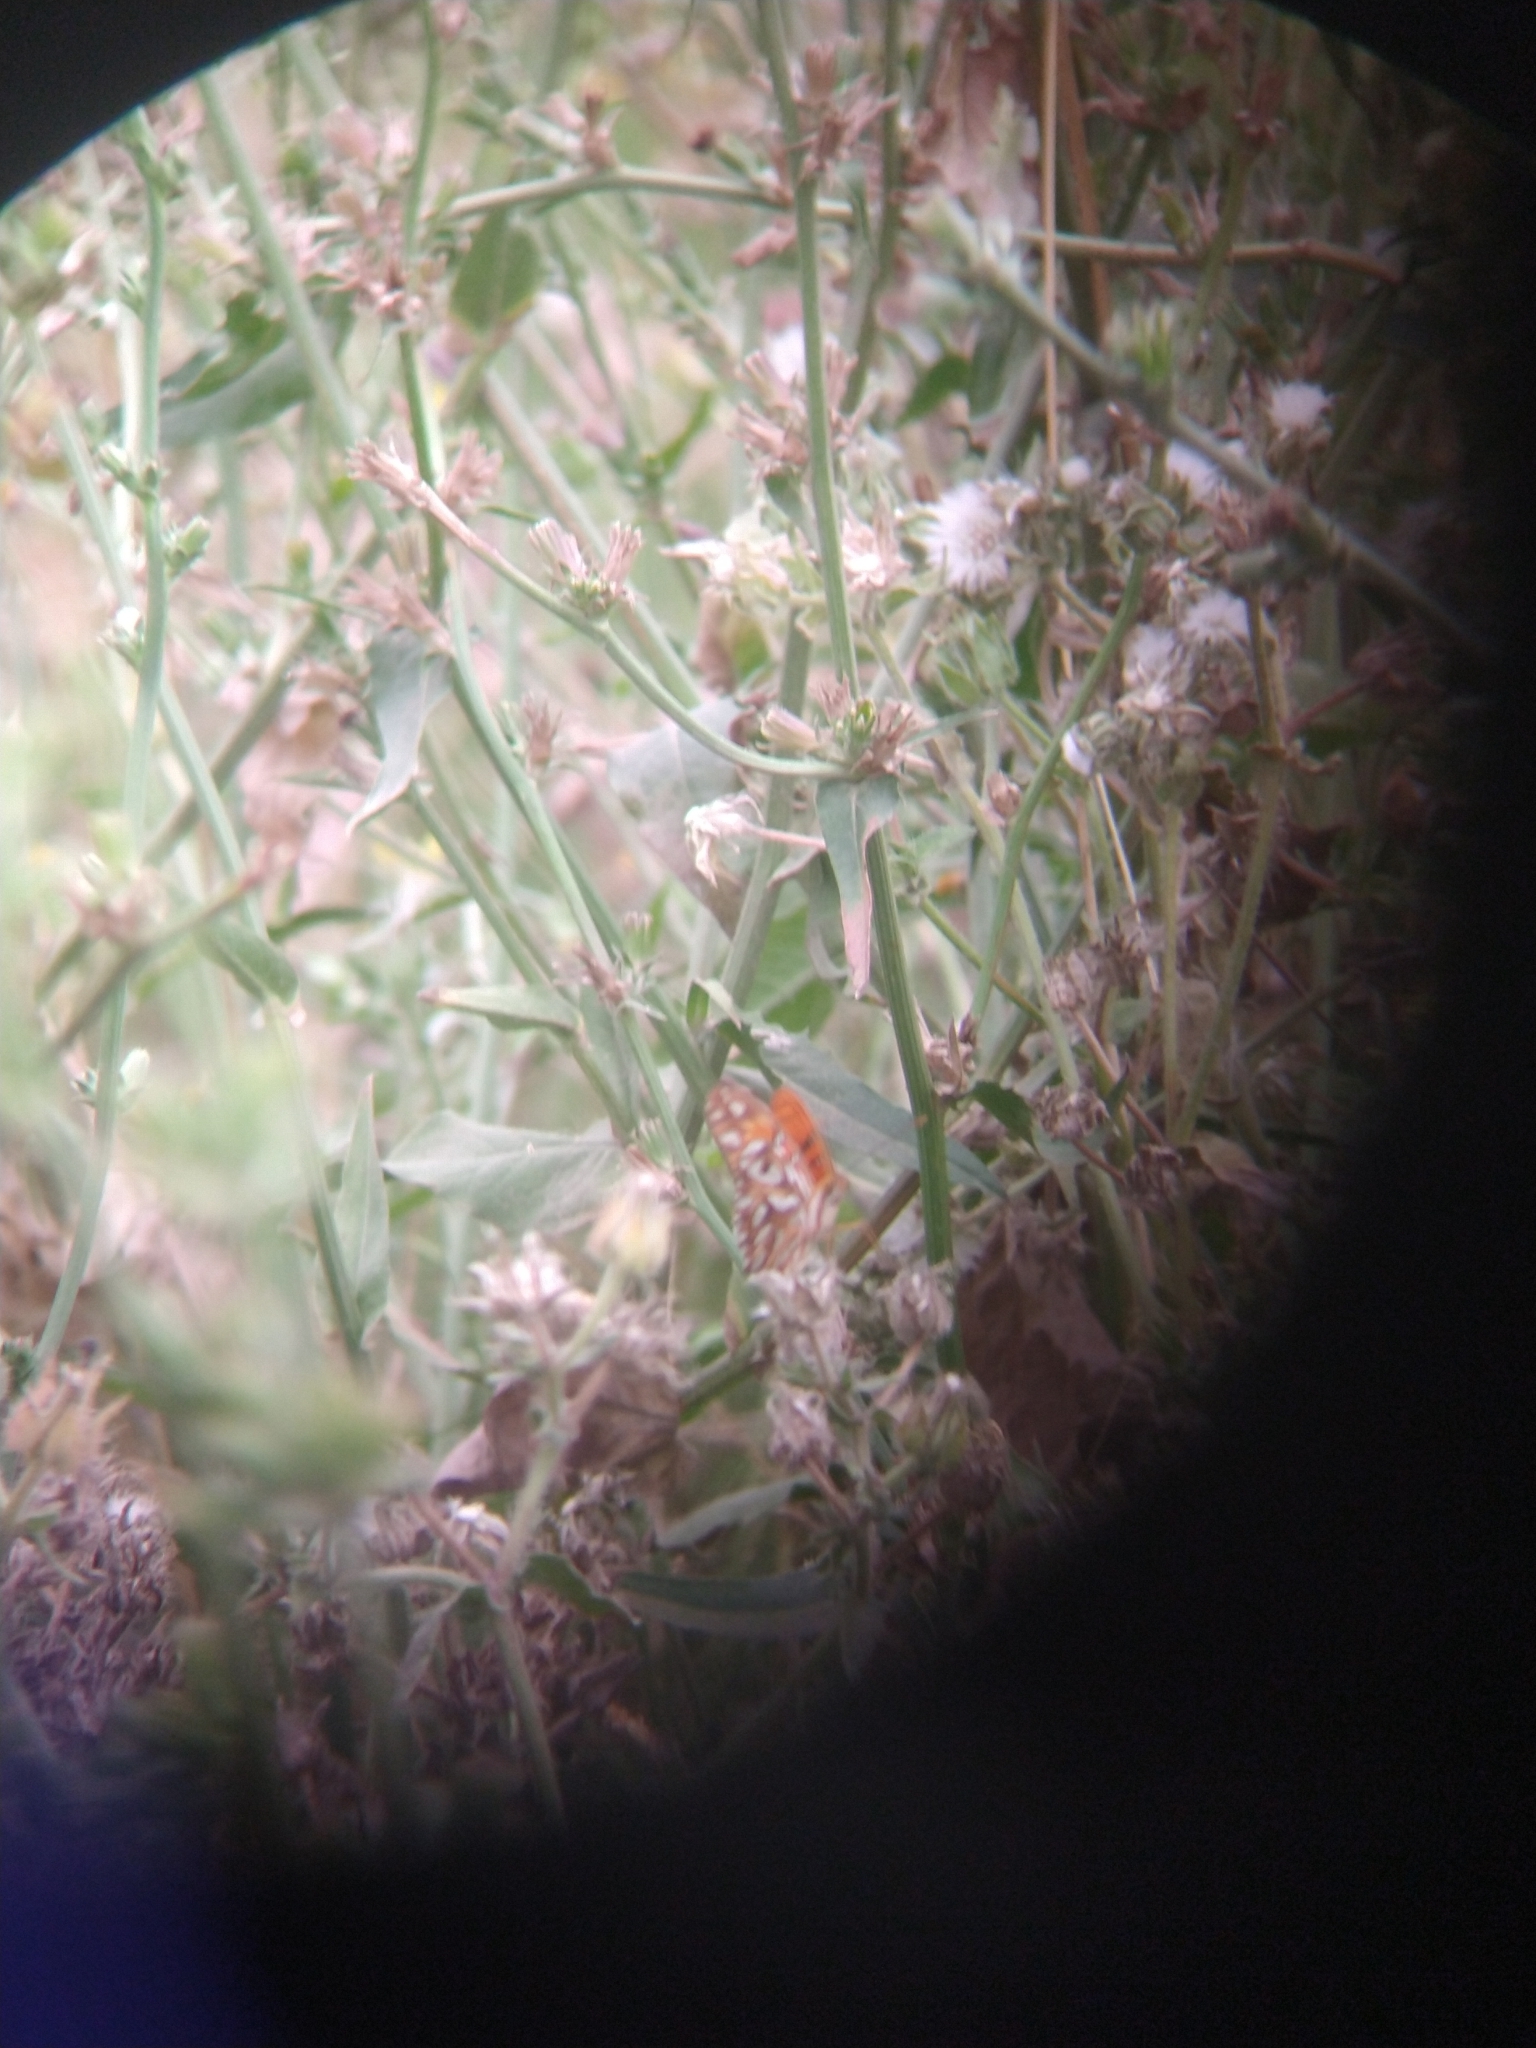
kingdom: Animalia
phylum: Arthropoda
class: Insecta
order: Lepidoptera
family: Nymphalidae
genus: Dione
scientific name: Dione vanillae
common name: Gulf fritillary
